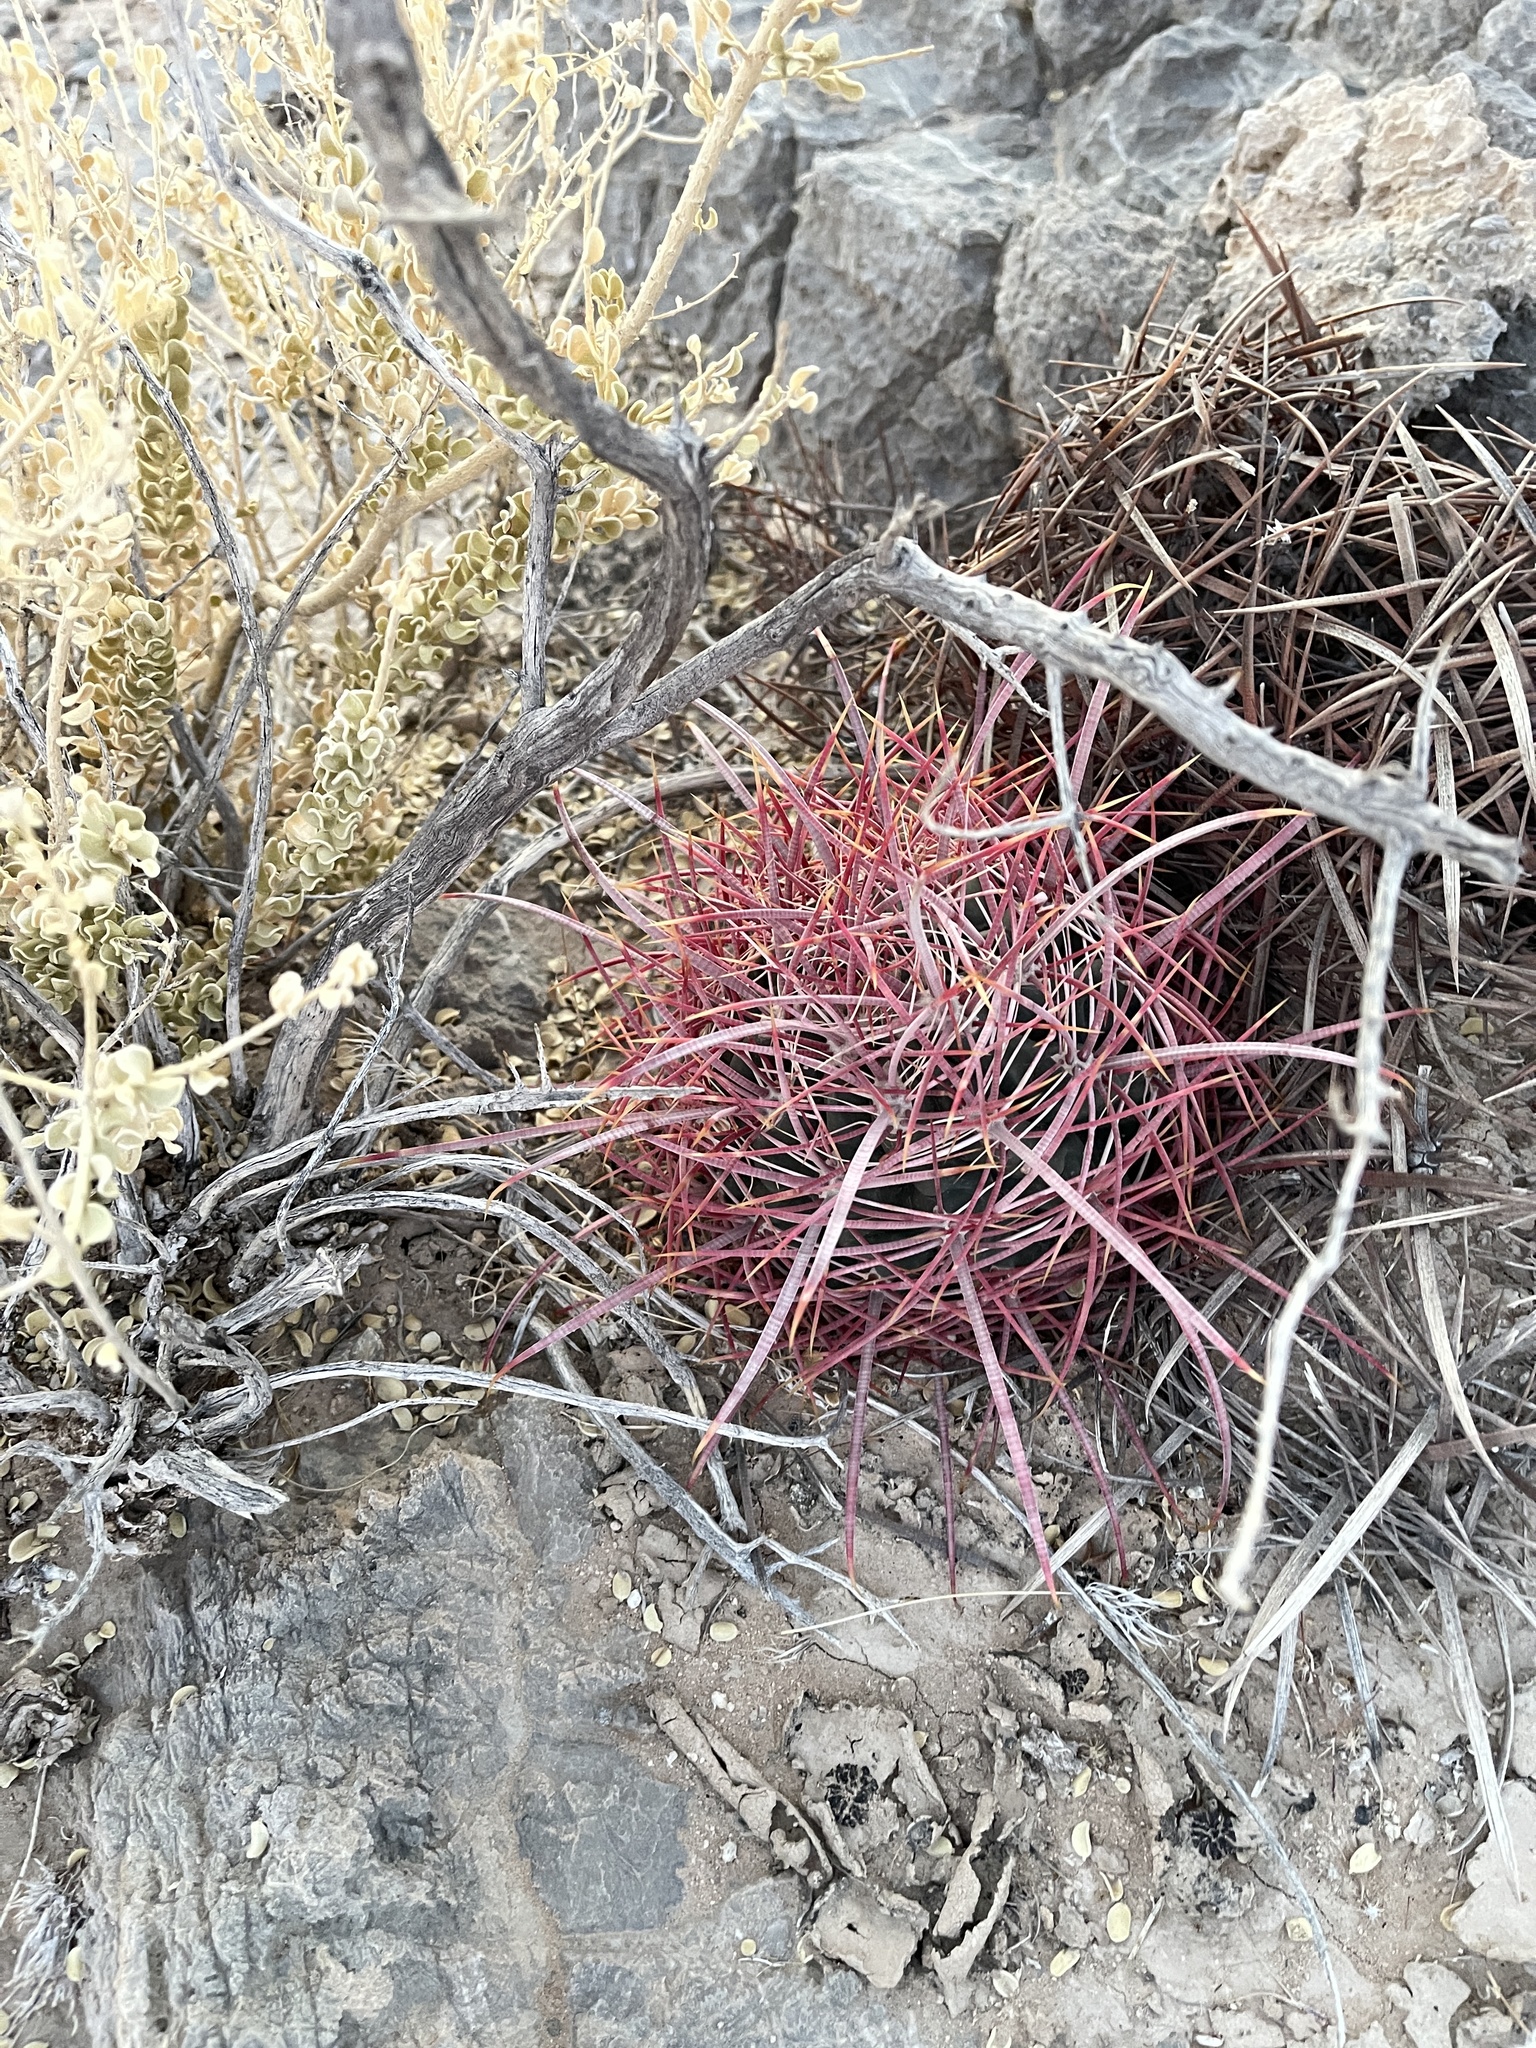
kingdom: Plantae
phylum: Tracheophyta
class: Magnoliopsida
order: Caryophyllales
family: Cactaceae
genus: Ferocactus
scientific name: Ferocactus cylindraceus
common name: California barrel cactus
